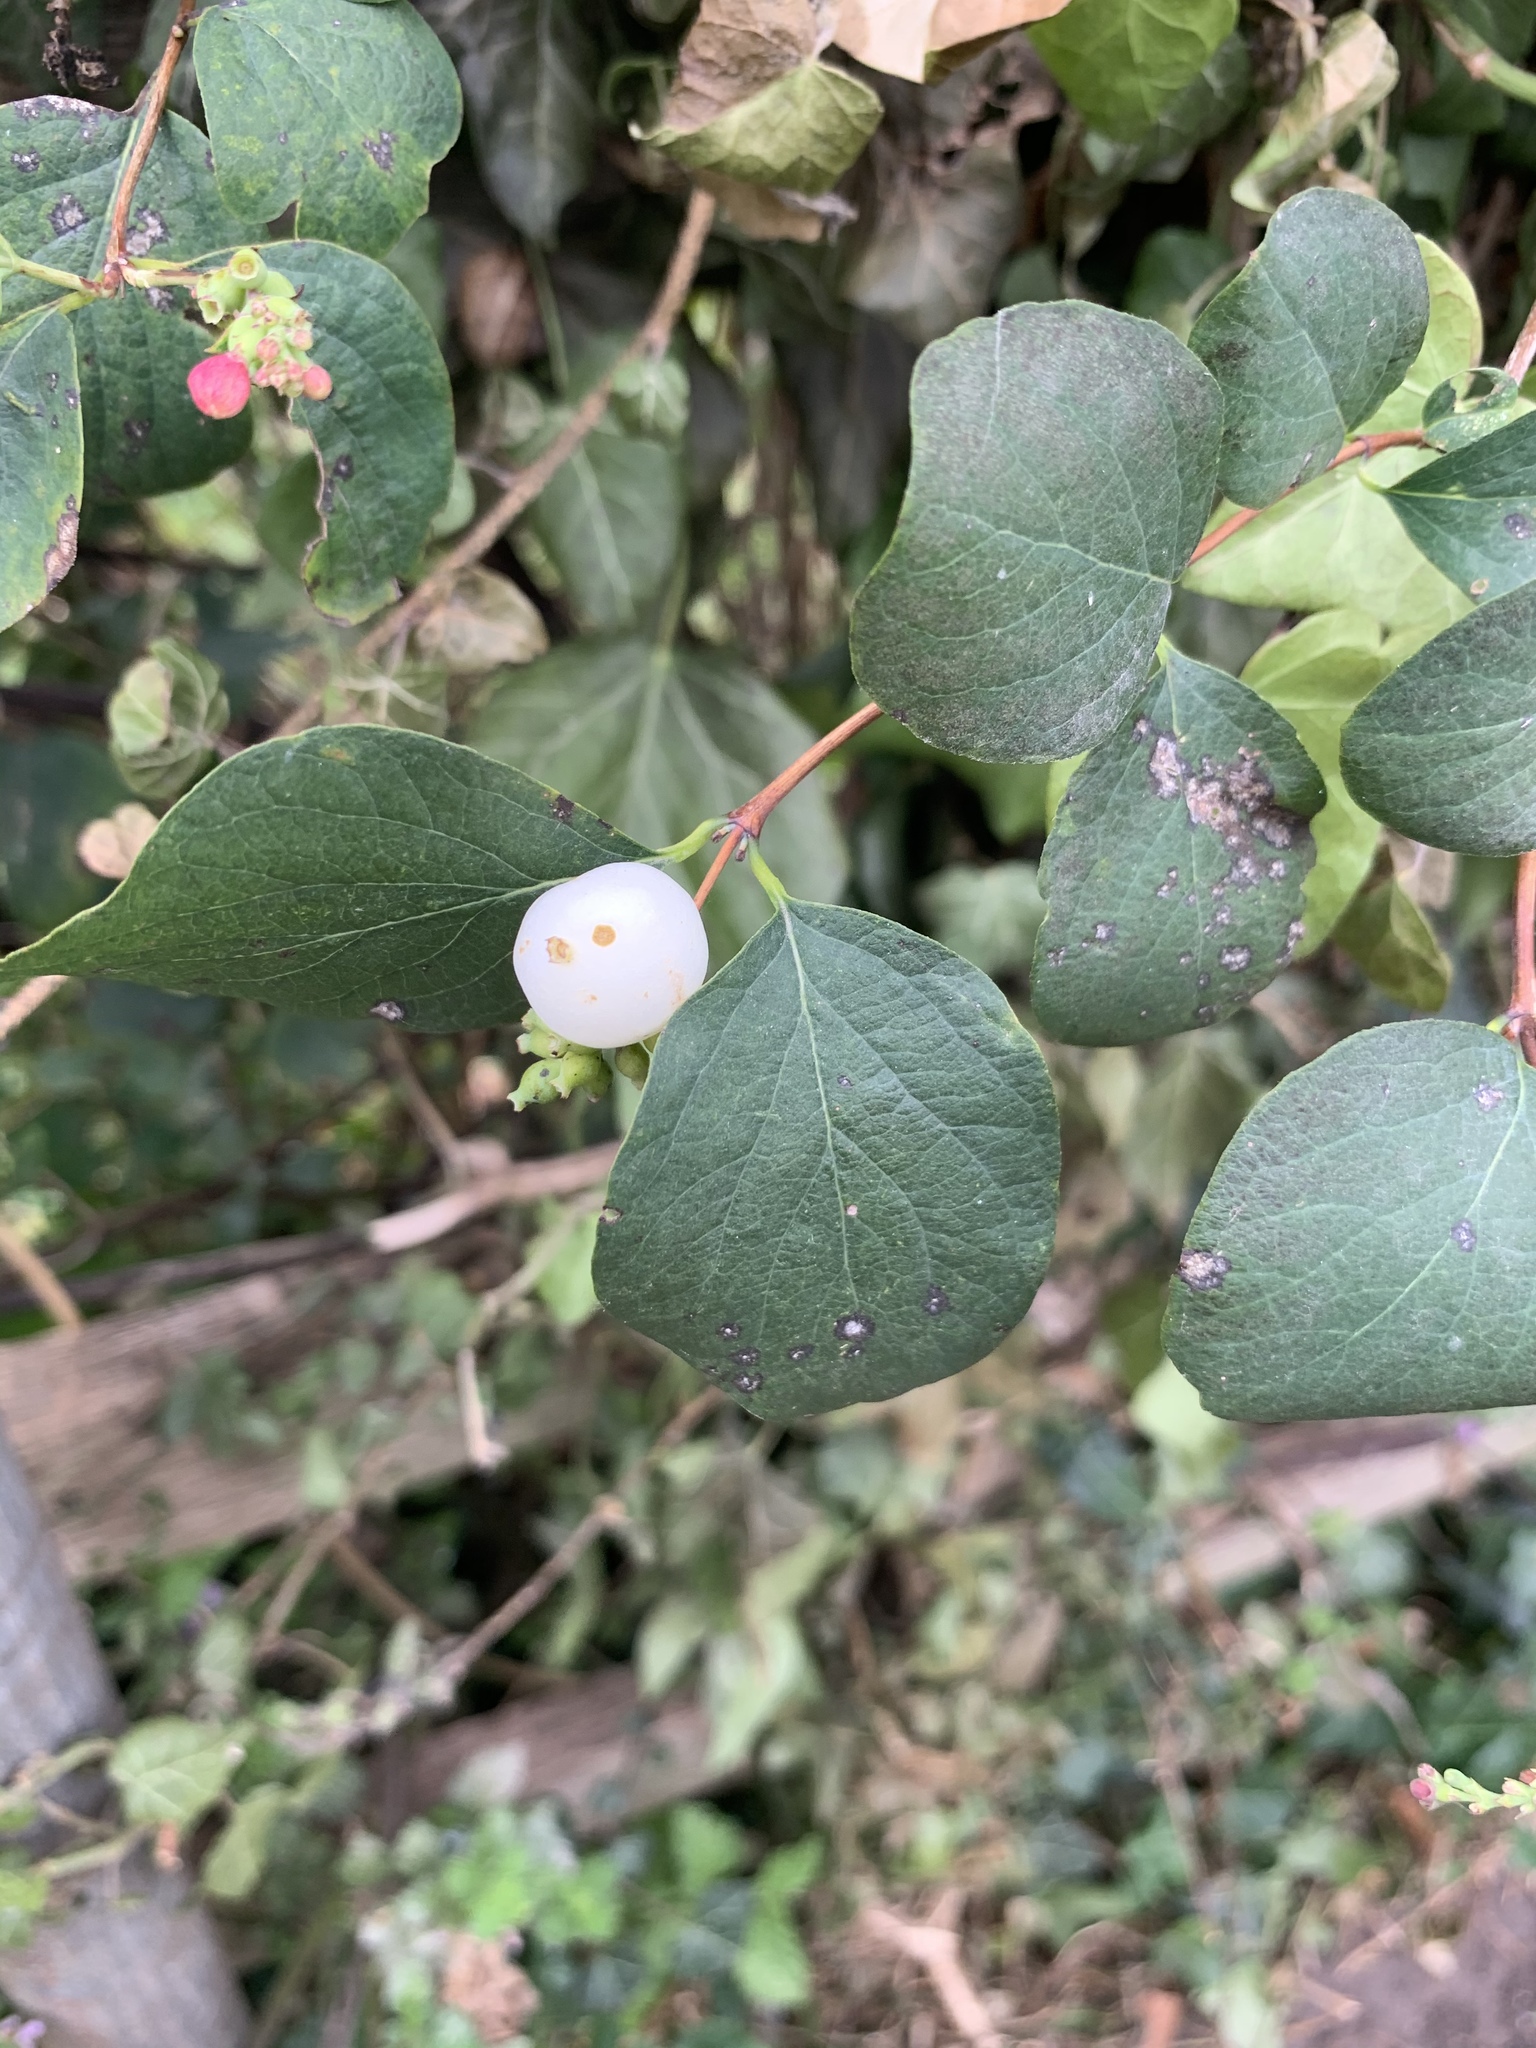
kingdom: Plantae
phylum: Tracheophyta
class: Magnoliopsida
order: Dipsacales
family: Caprifoliaceae
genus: Symphoricarpos
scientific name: Symphoricarpos albus
